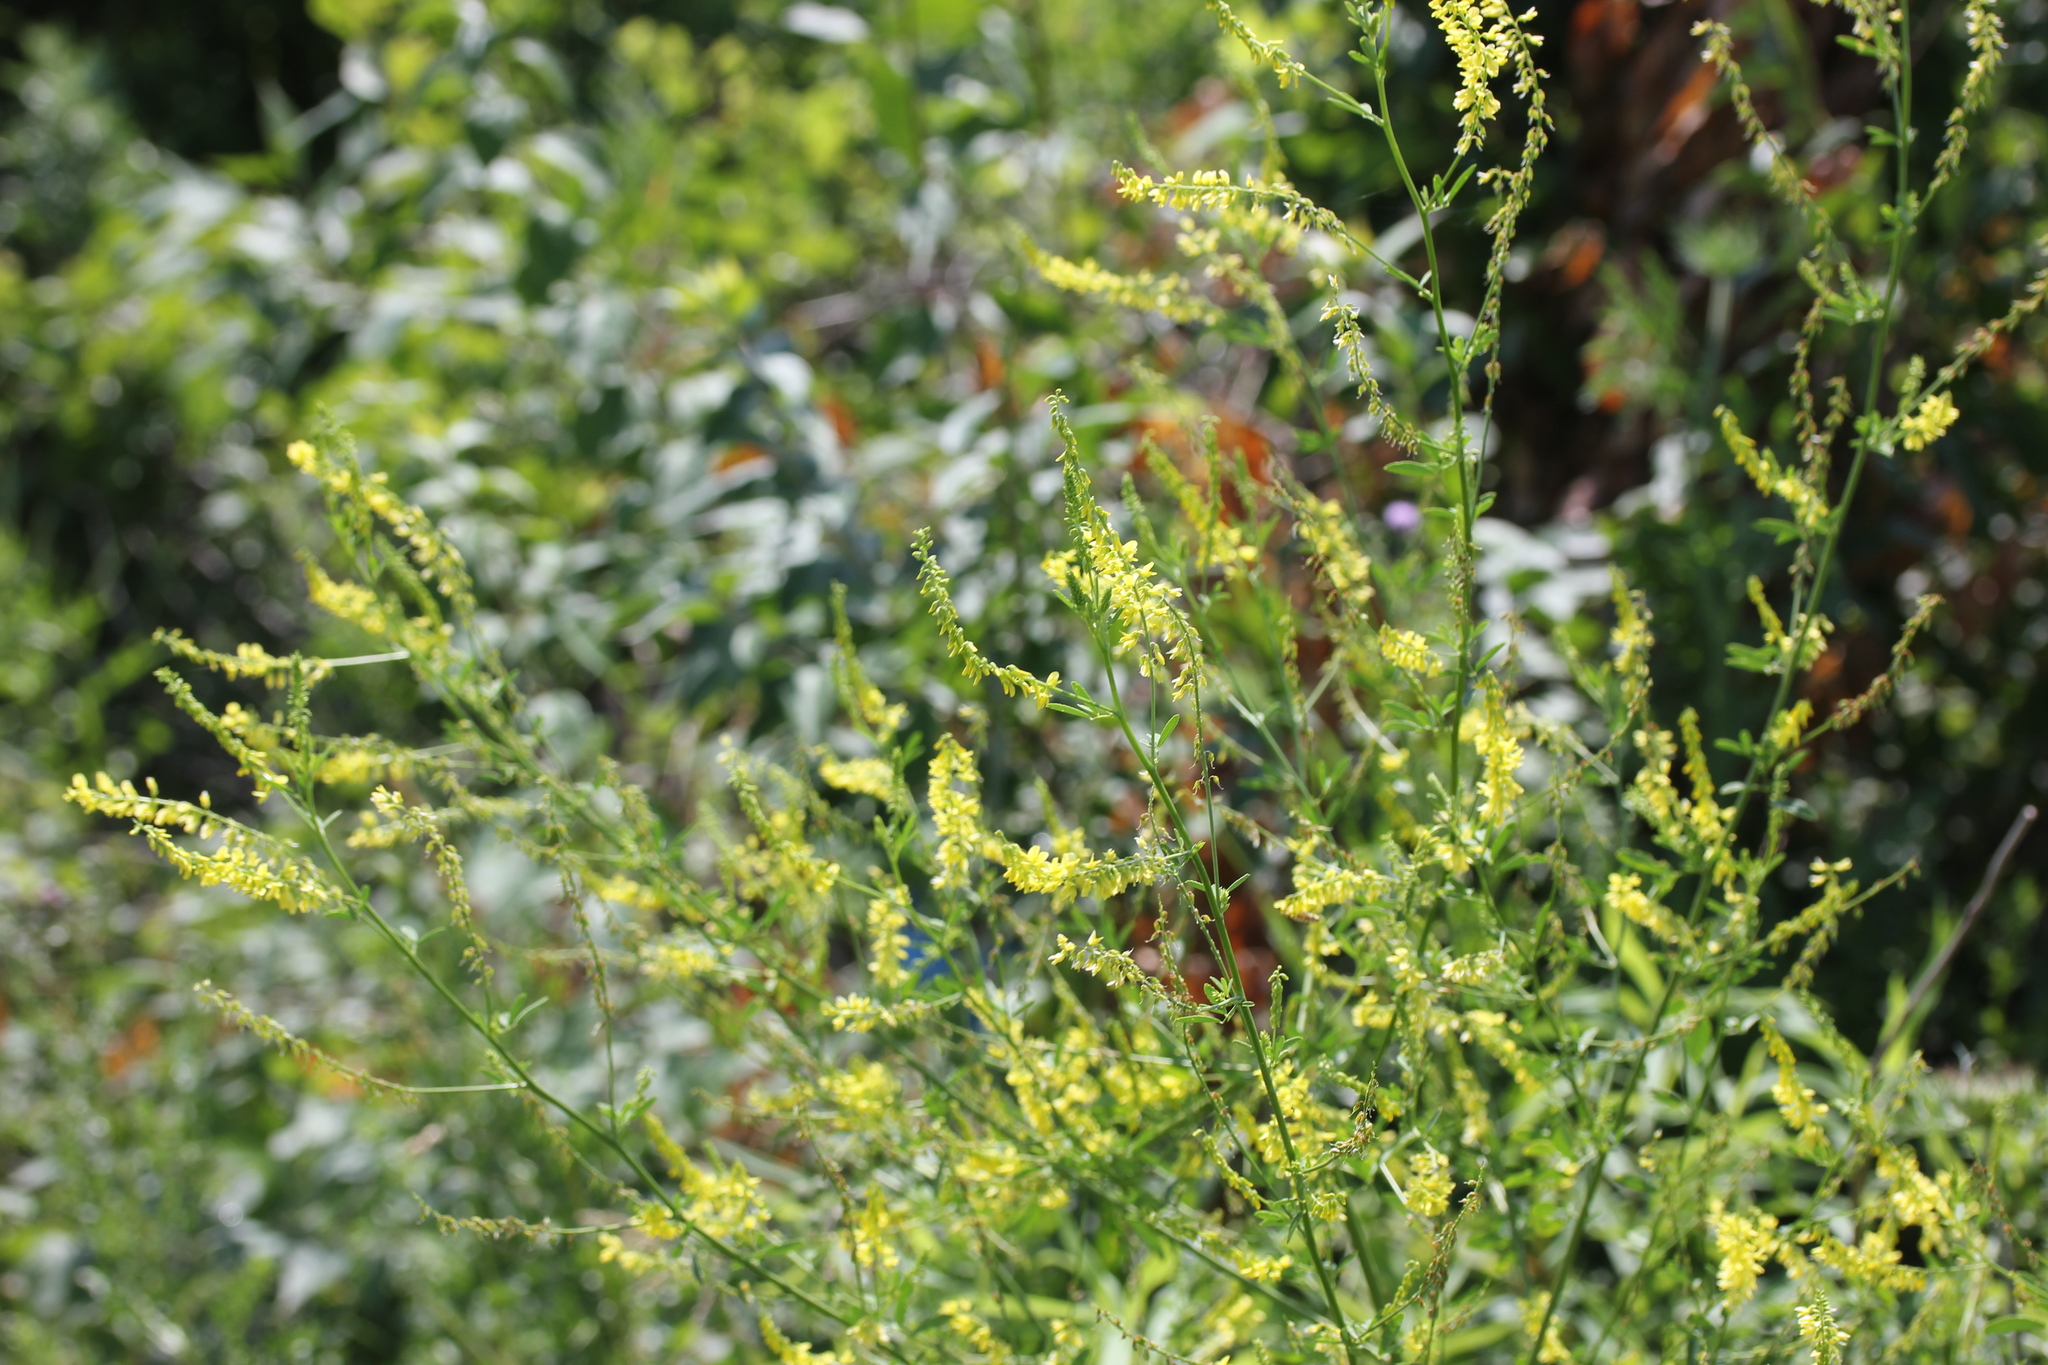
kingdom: Plantae
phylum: Tracheophyta
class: Magnoliopsida
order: Fabales
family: Fabaceae
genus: Melilotus
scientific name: Melilotus officinalis
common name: Sweetclover
